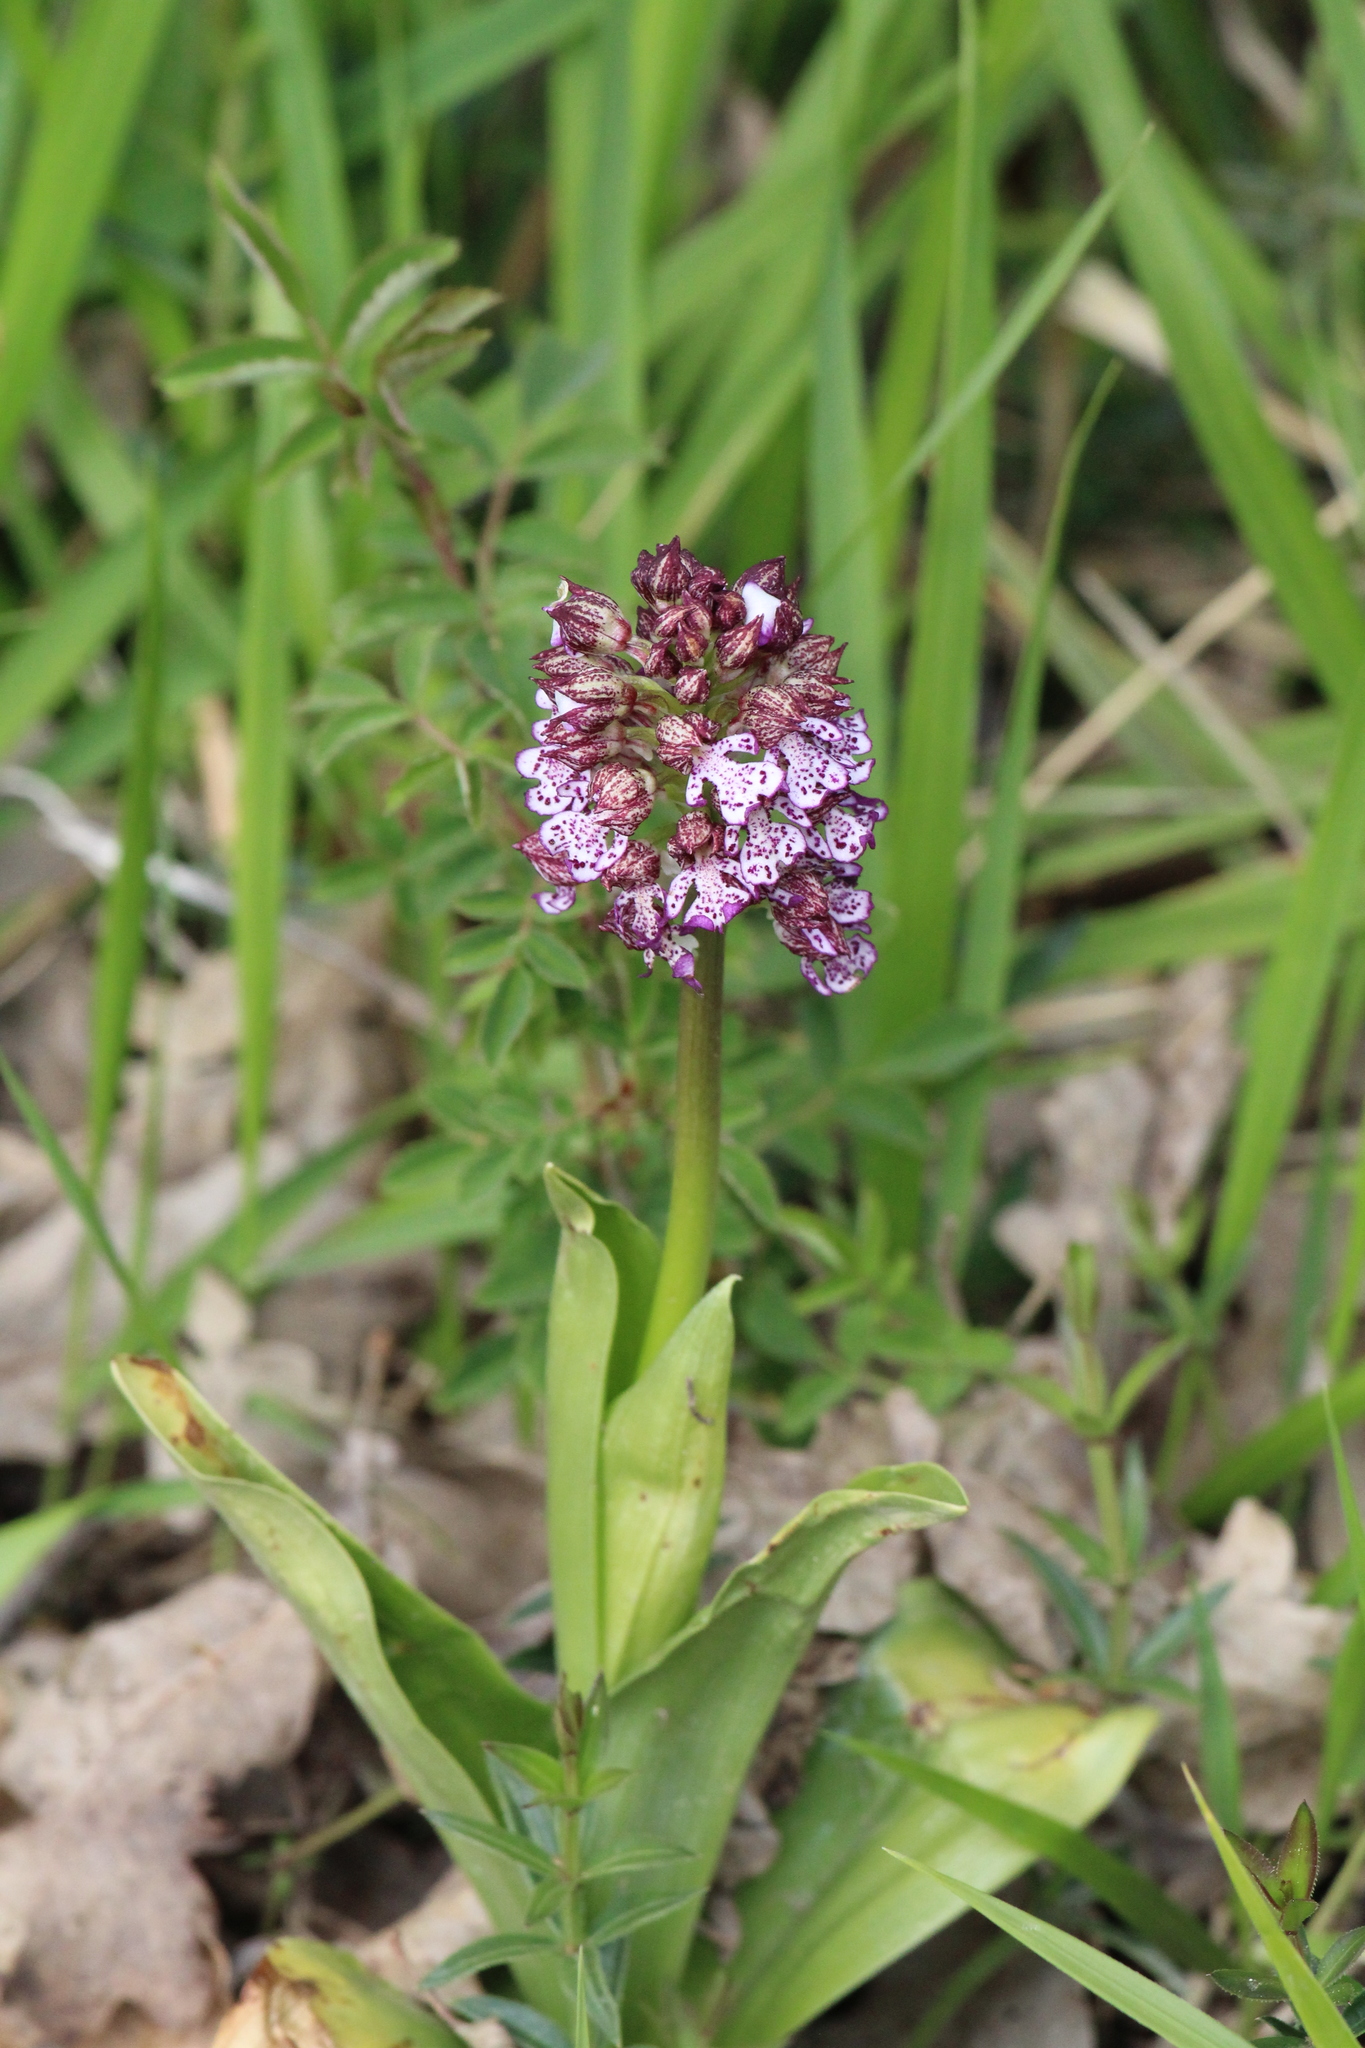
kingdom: Plantae
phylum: Tracheophyta
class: Liliopsida
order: Asparagales
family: Orchidaceae
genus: Orchis
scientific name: Orchis purpurea
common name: Lady orchid
